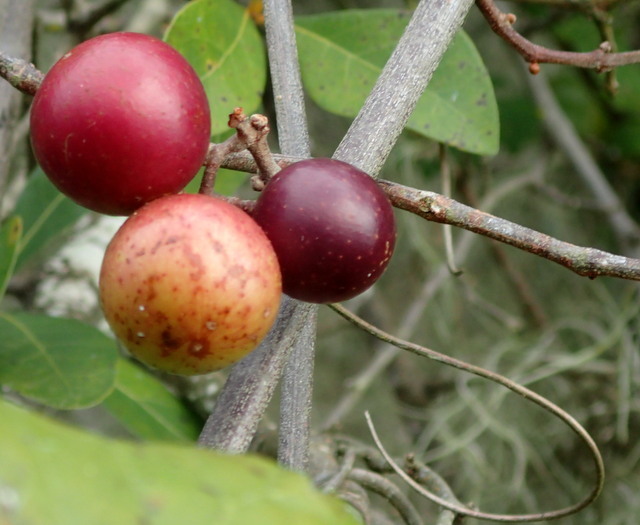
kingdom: Plantae
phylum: Tracheophyta
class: Magnoliopsida
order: Vitales
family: Vitaceae
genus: Vitis
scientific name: Vitis rotundifolia
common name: Muscadine grape
